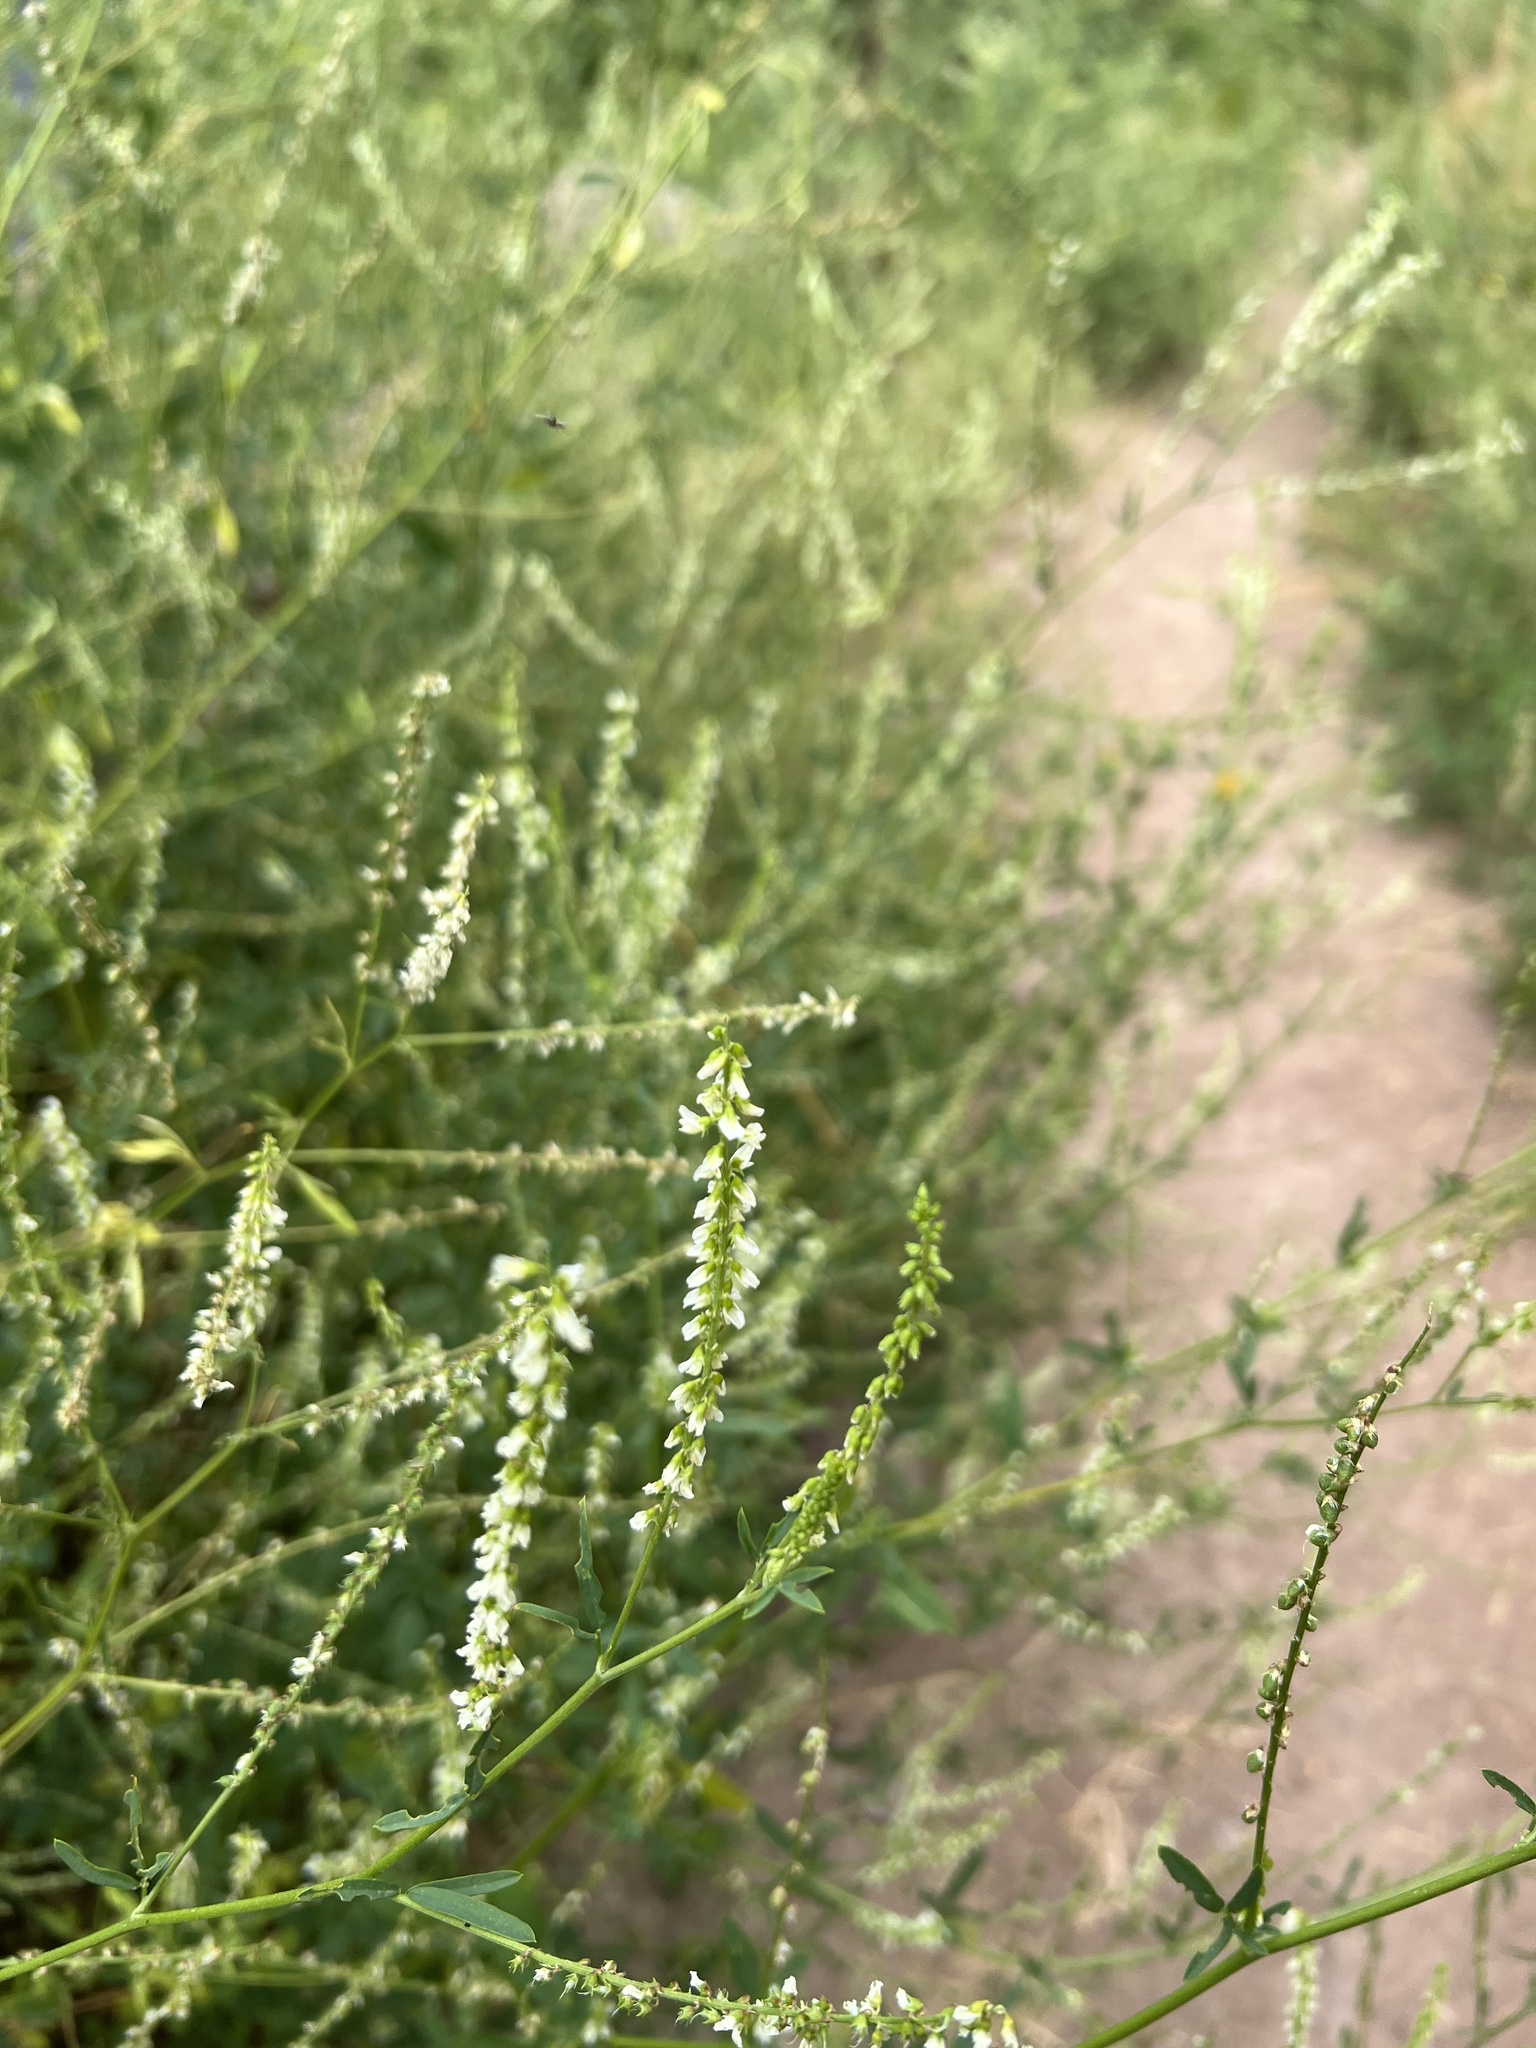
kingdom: Plantae
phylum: Tracheophyta
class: Magnoliopsida
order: Fabales
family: Fabaceae
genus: Melilotus
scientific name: Melilotus albus
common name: White melilot
